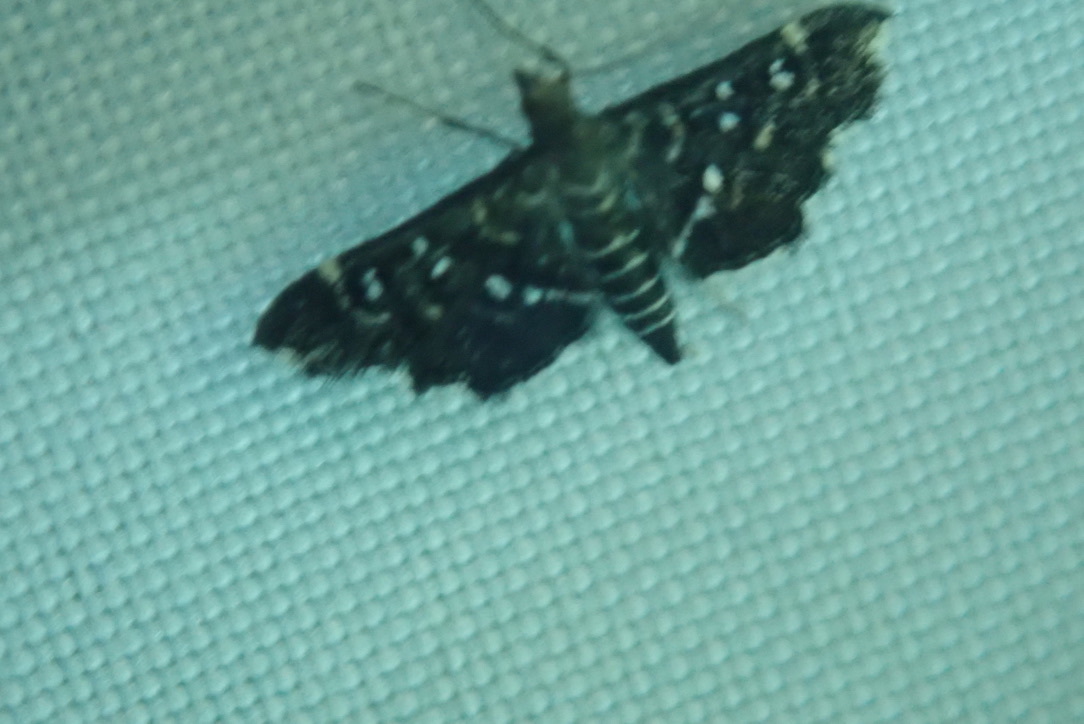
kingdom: Animalia
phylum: Arthropoda
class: Insecta
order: Lepidoptera
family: Crambidae
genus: Diathrausta
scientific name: Diathrausta harlequinalis
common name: Harlequin webworm moth
